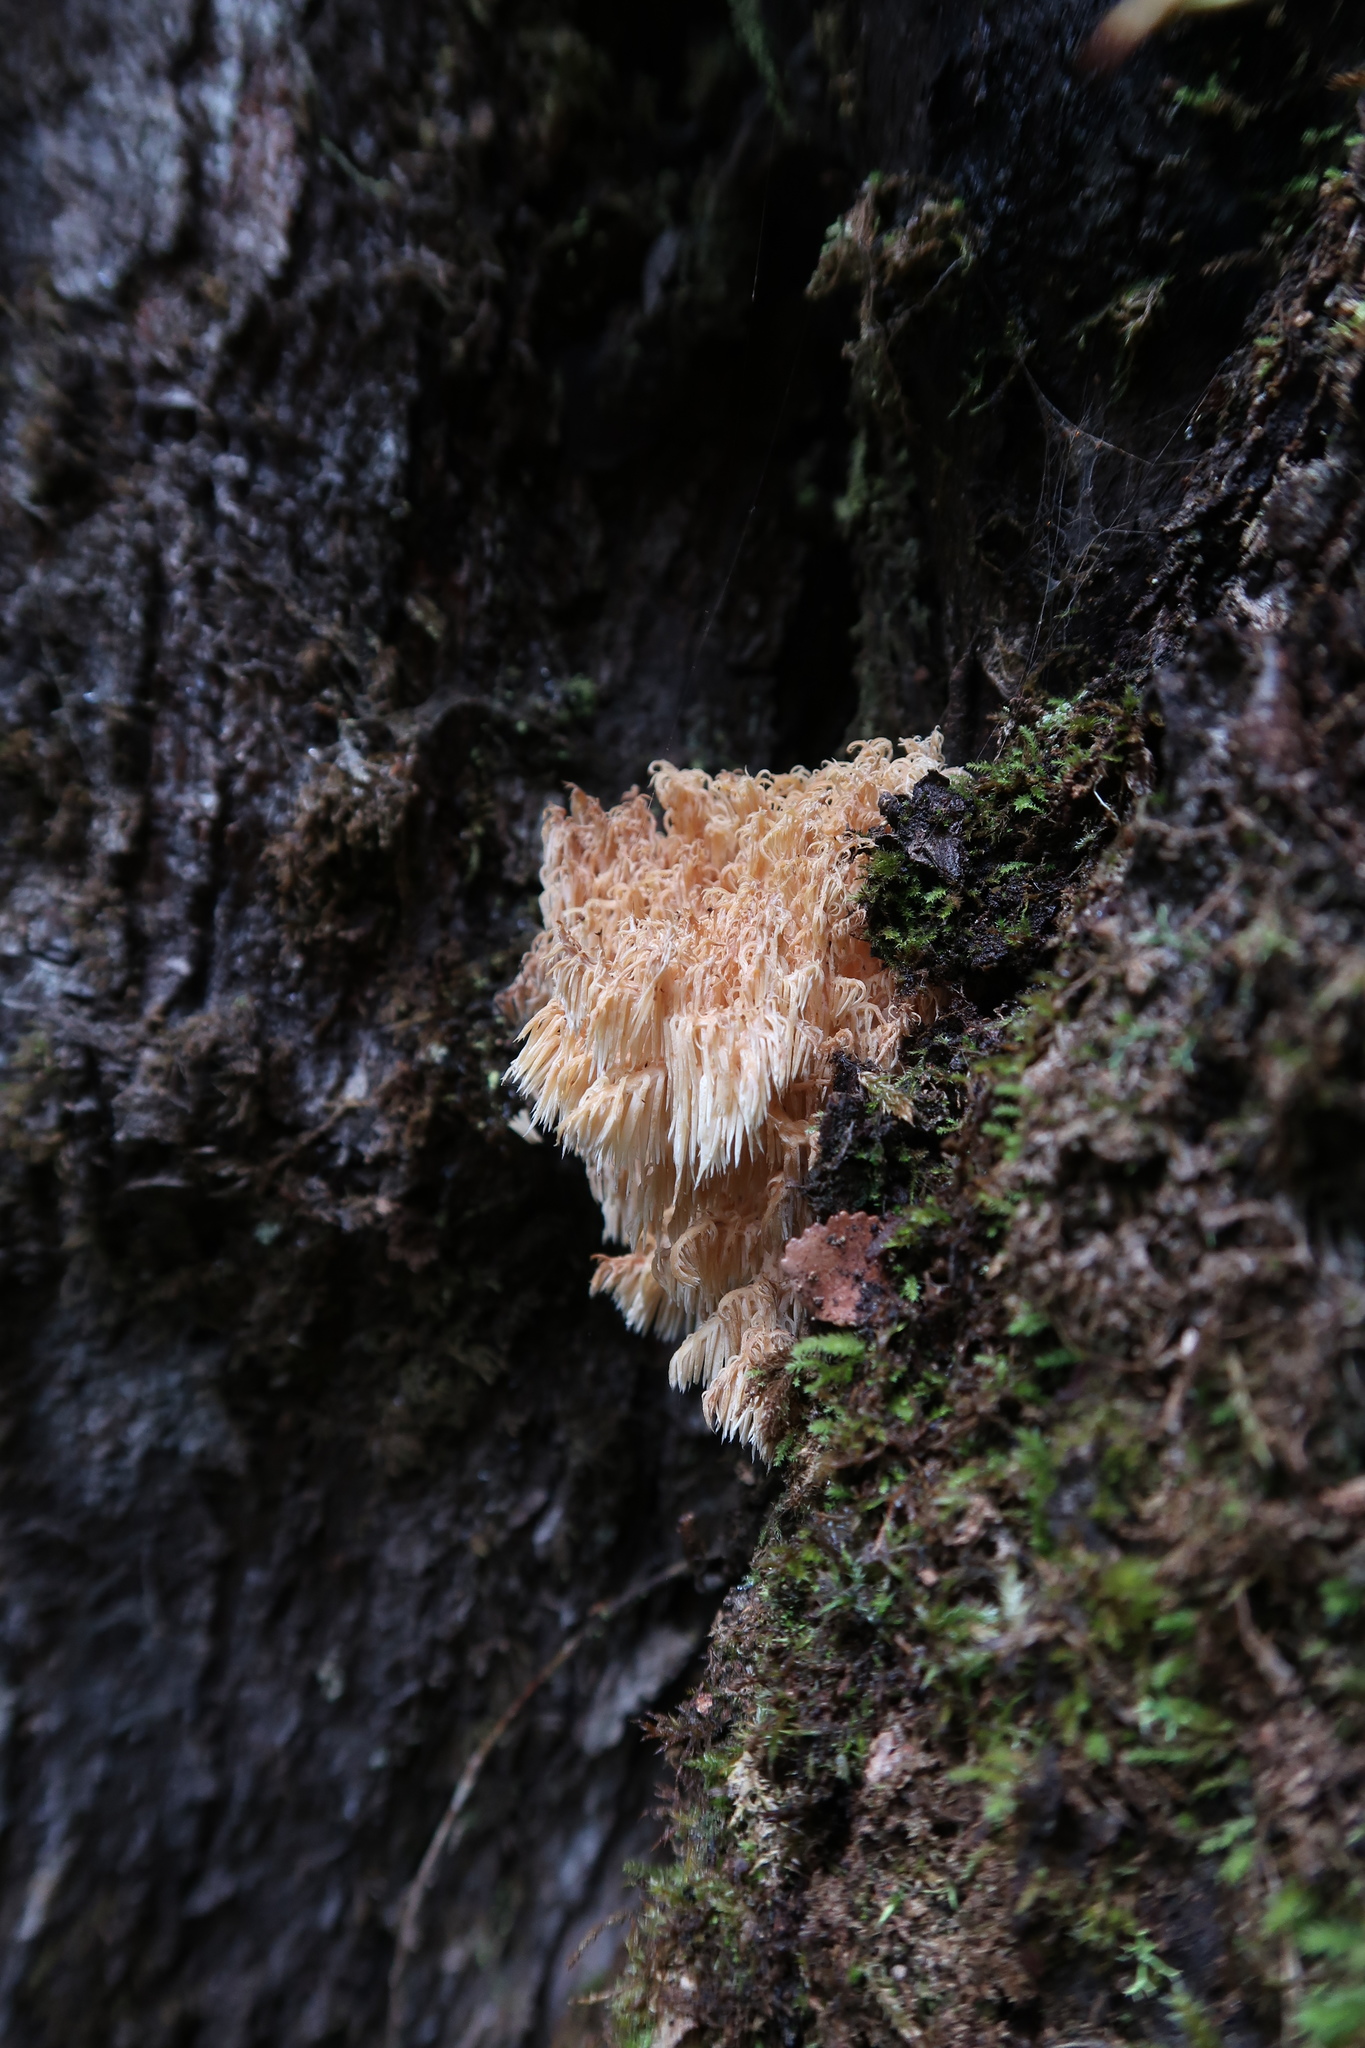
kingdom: Fungi
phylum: Basidiomycota
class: Agaricomycetes
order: Russulales
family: Hericiaceae
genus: Hericium
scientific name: Hericium coralloides
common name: Coral tooth
